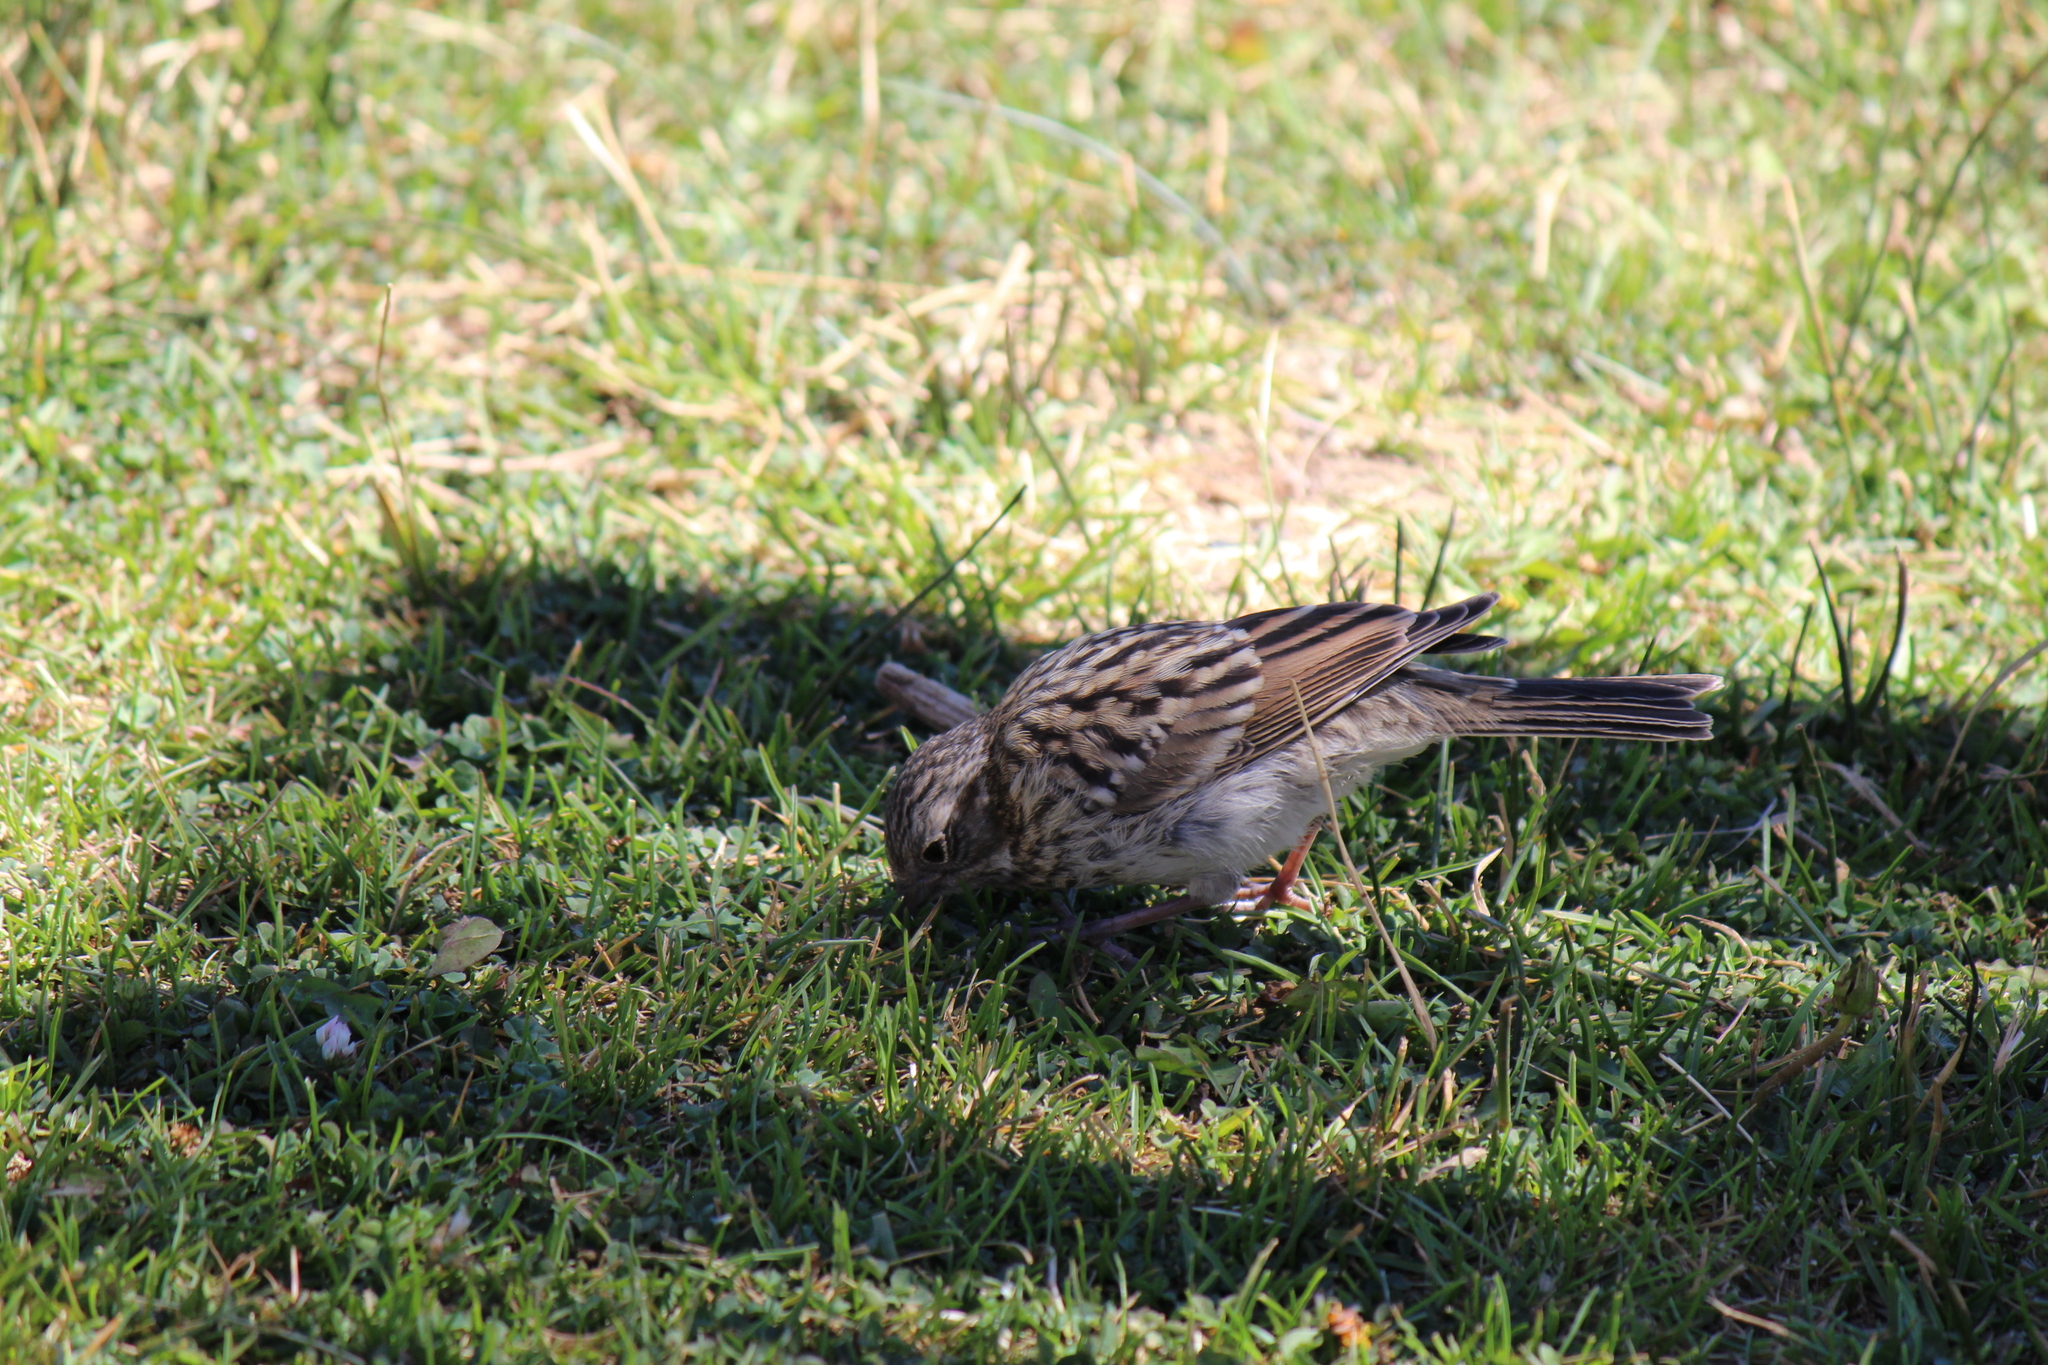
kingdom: Animalia
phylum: Chordata
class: Aves
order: Passeriformes
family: Passerellidae
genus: Zonotrichia
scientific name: Zonotrichia capensis
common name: Rufous-collared sparrow
